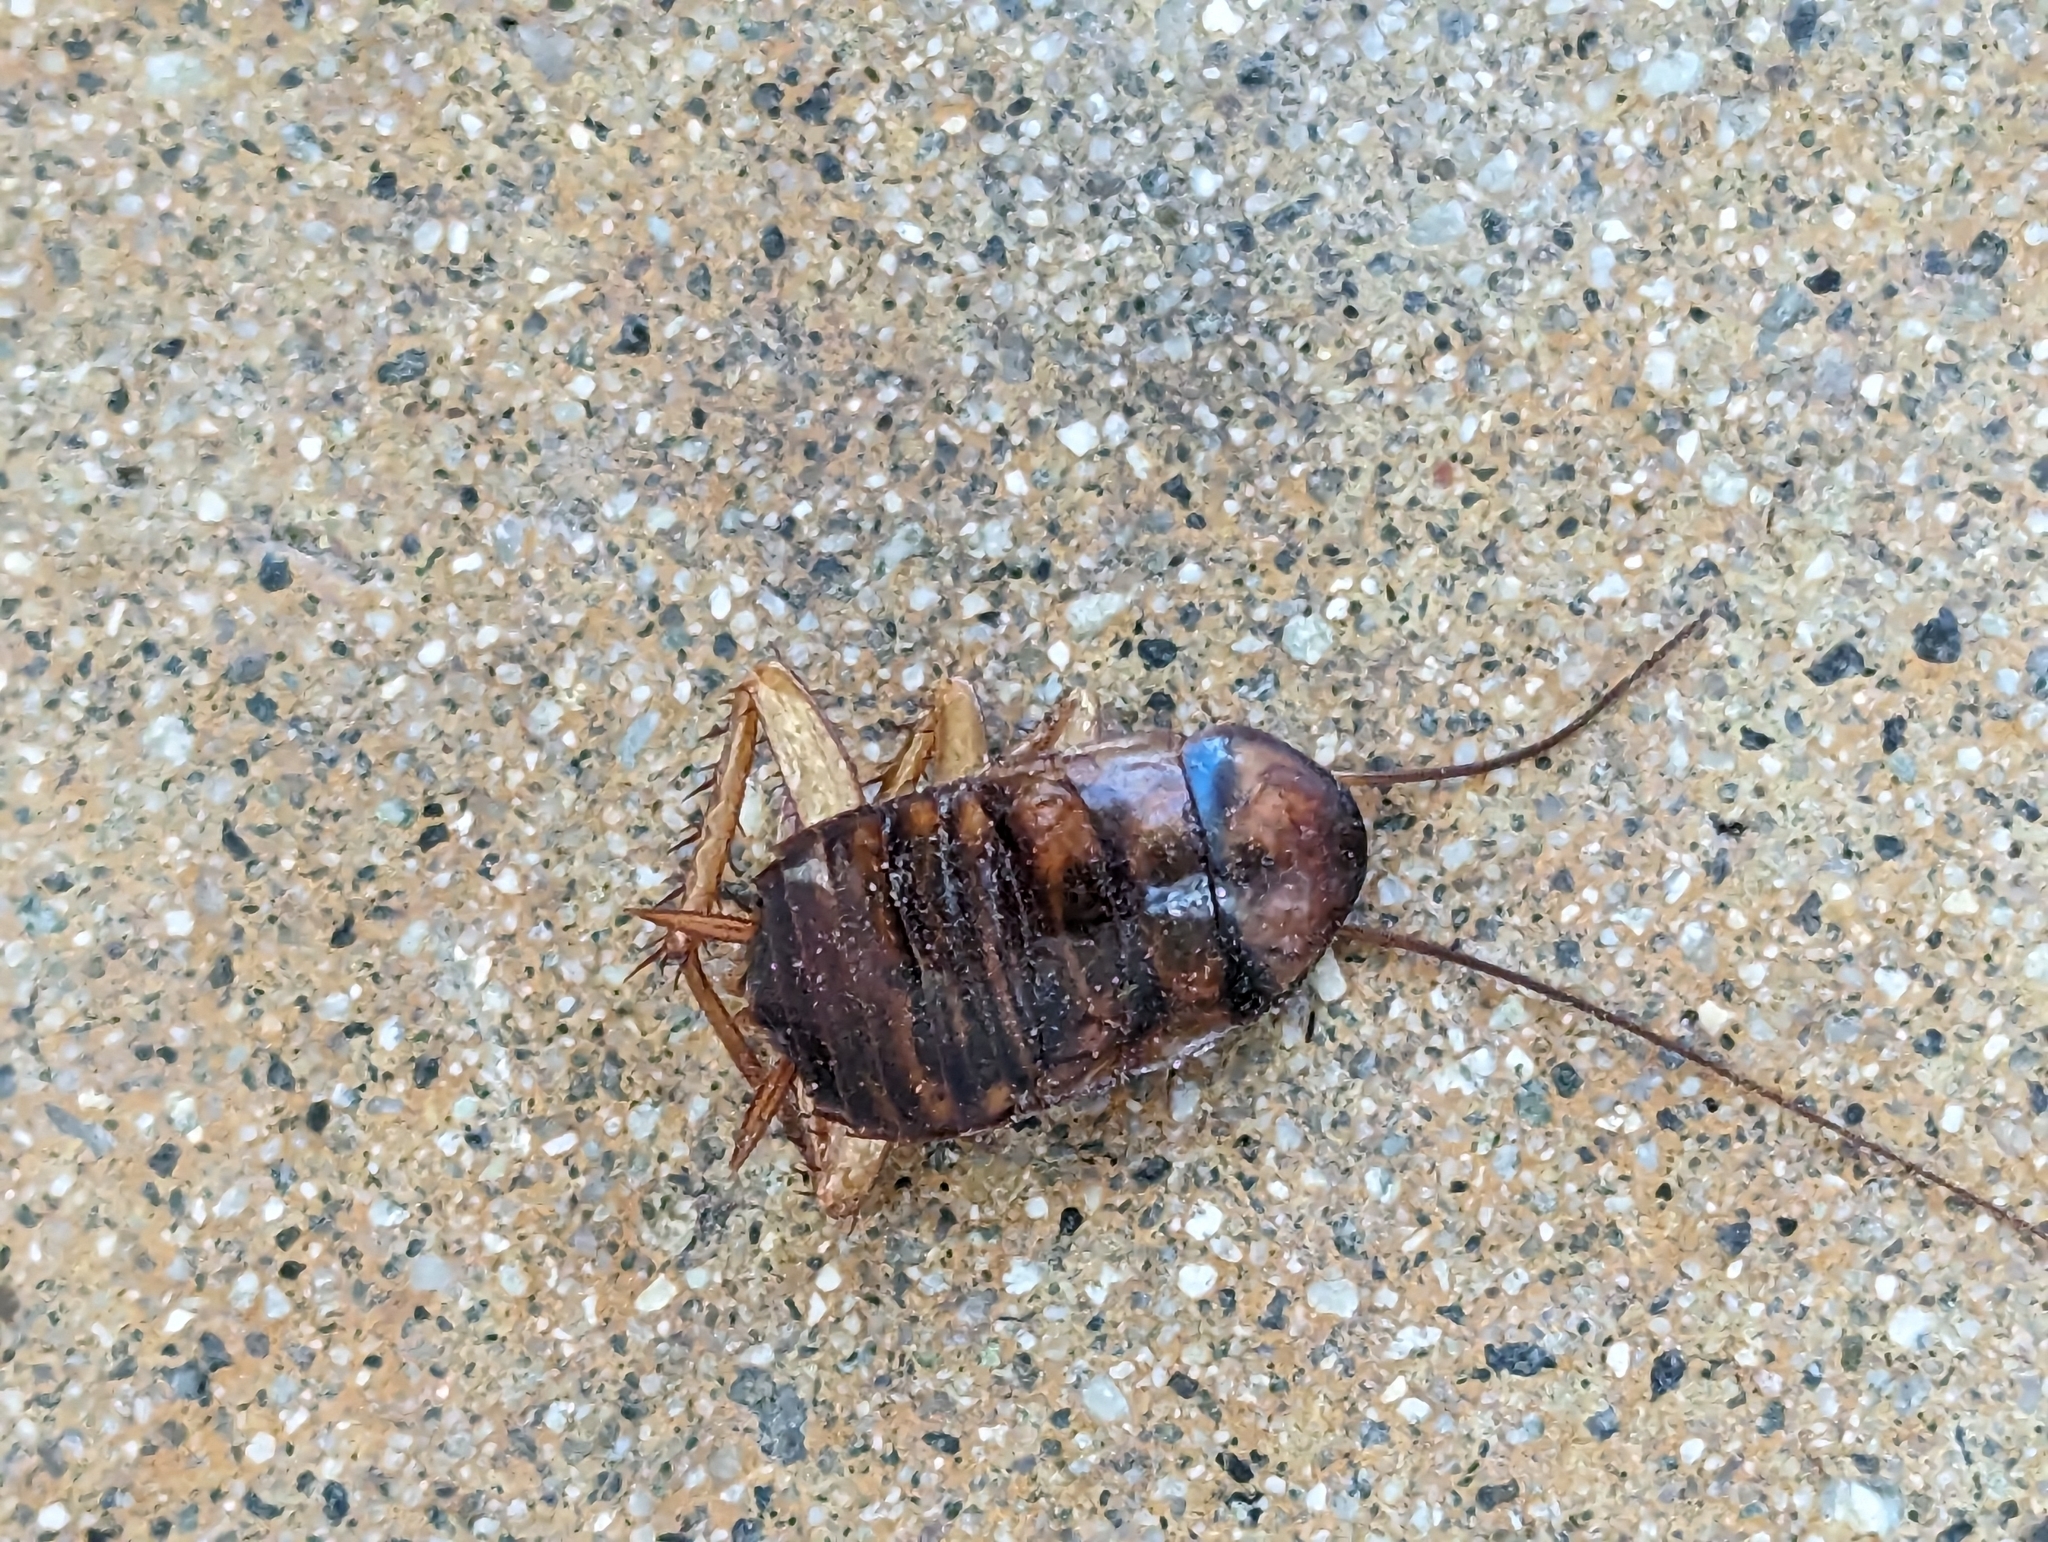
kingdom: Animalia
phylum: Arthropoda
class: Insecta
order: Blattodea
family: Blattidae
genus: Periplaneta
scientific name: Periplaneta americana
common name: American cockroach
